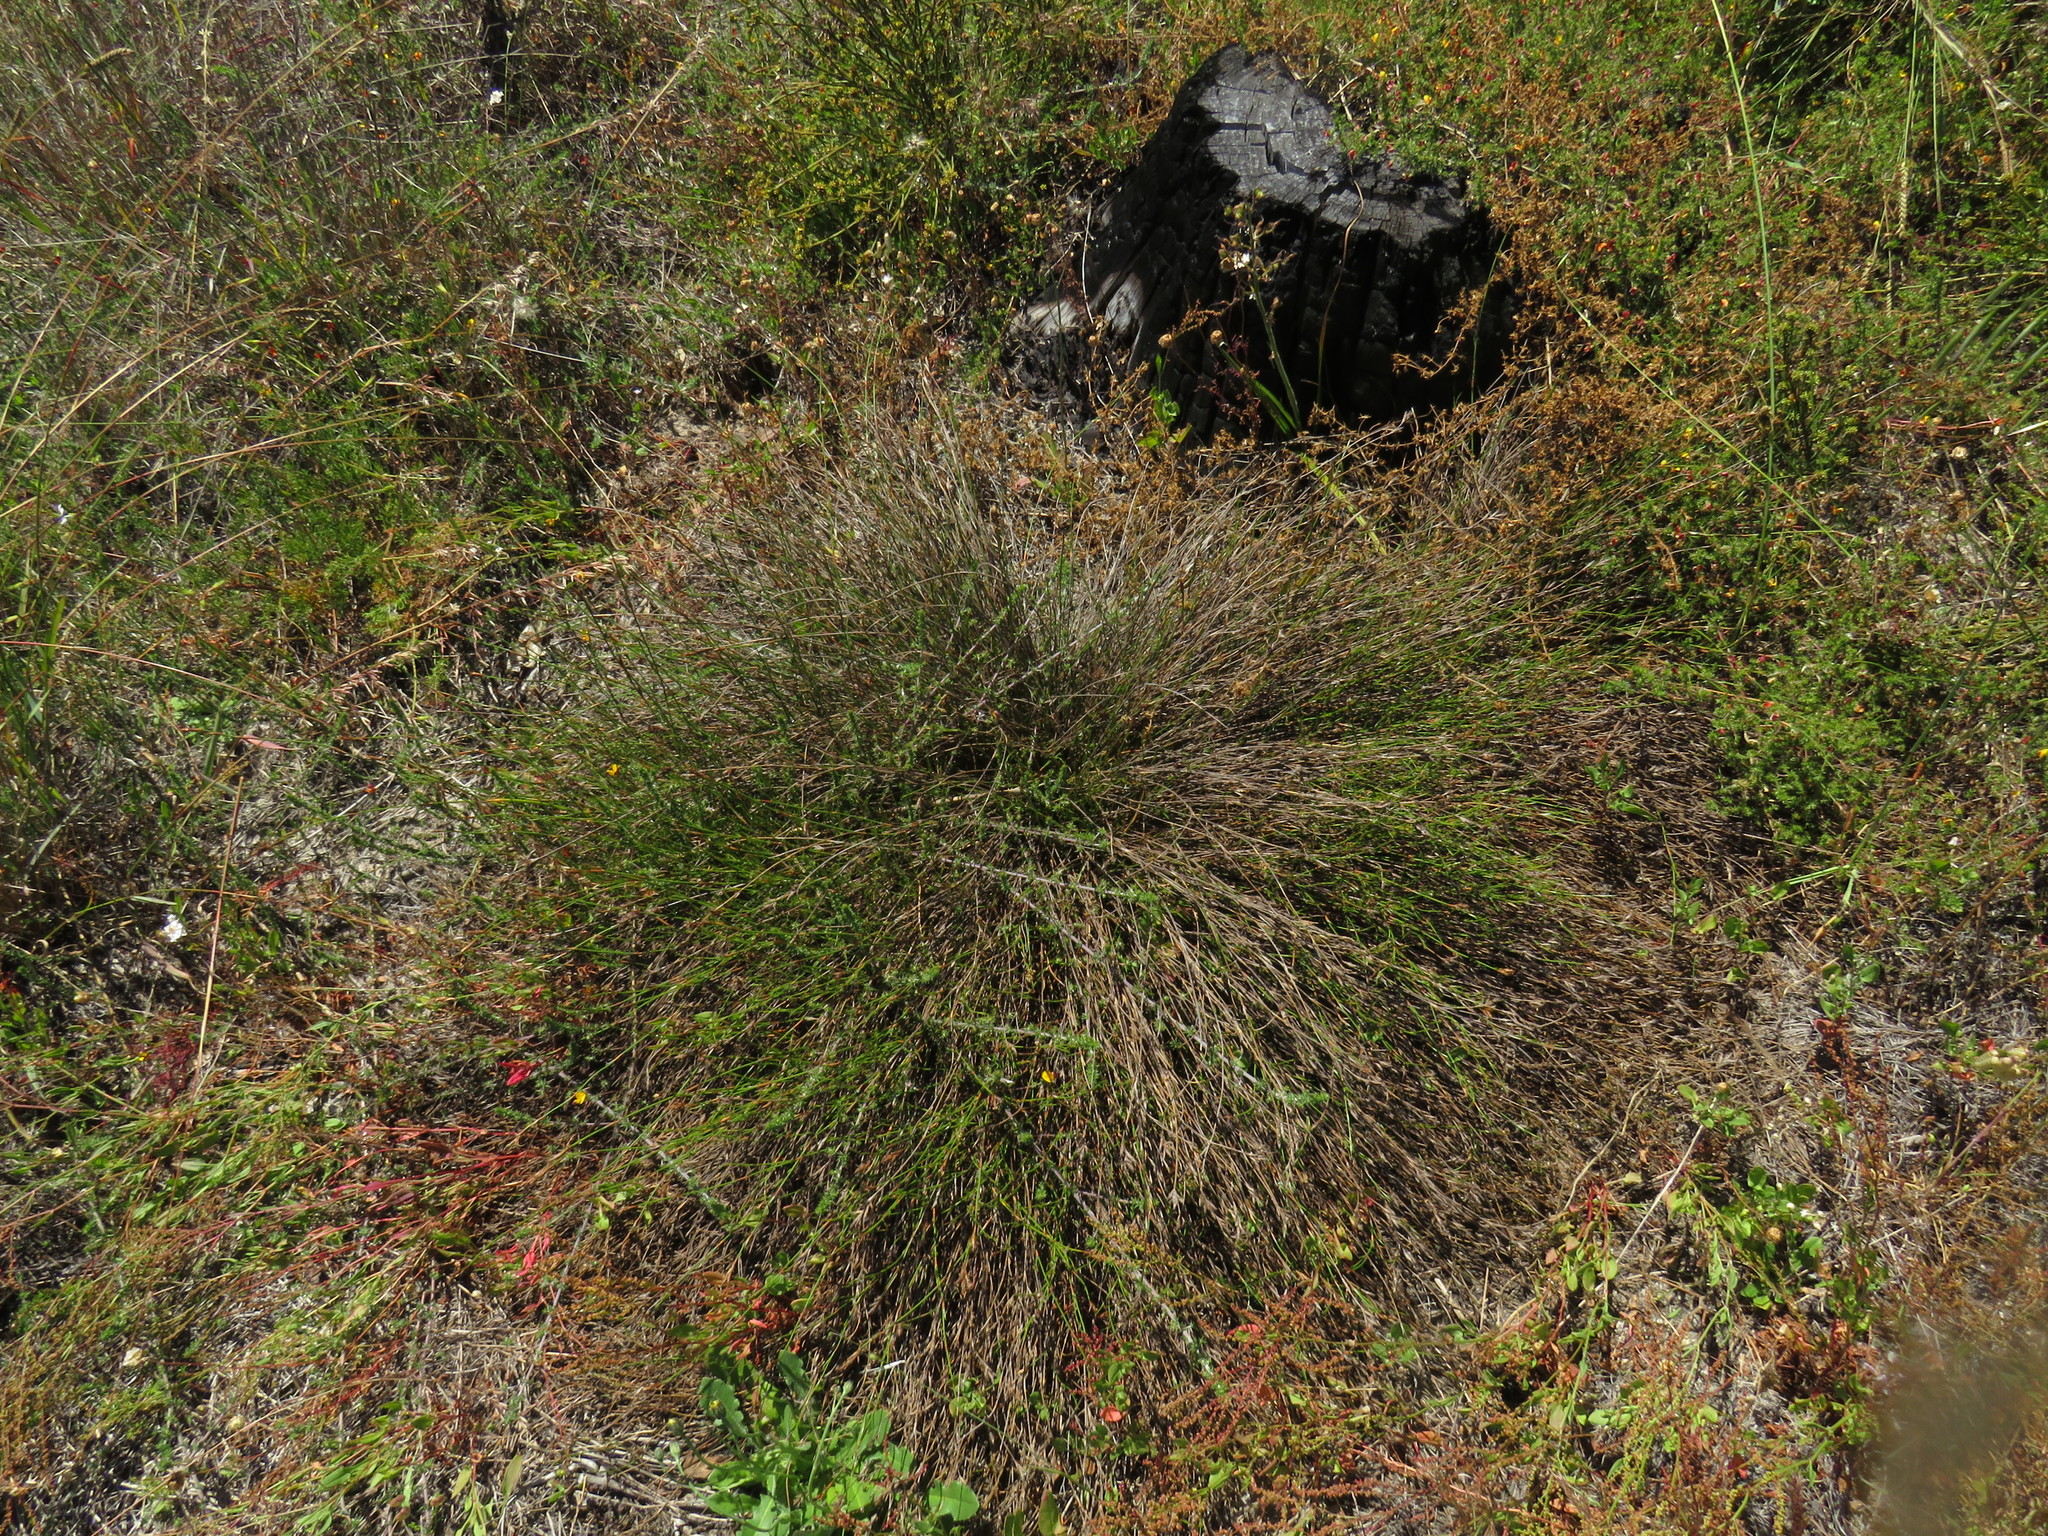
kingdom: Plantae
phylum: Tracheophyta
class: Liliopsida
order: Poales
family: Restionaceae
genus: Restio
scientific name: Restio capensis
